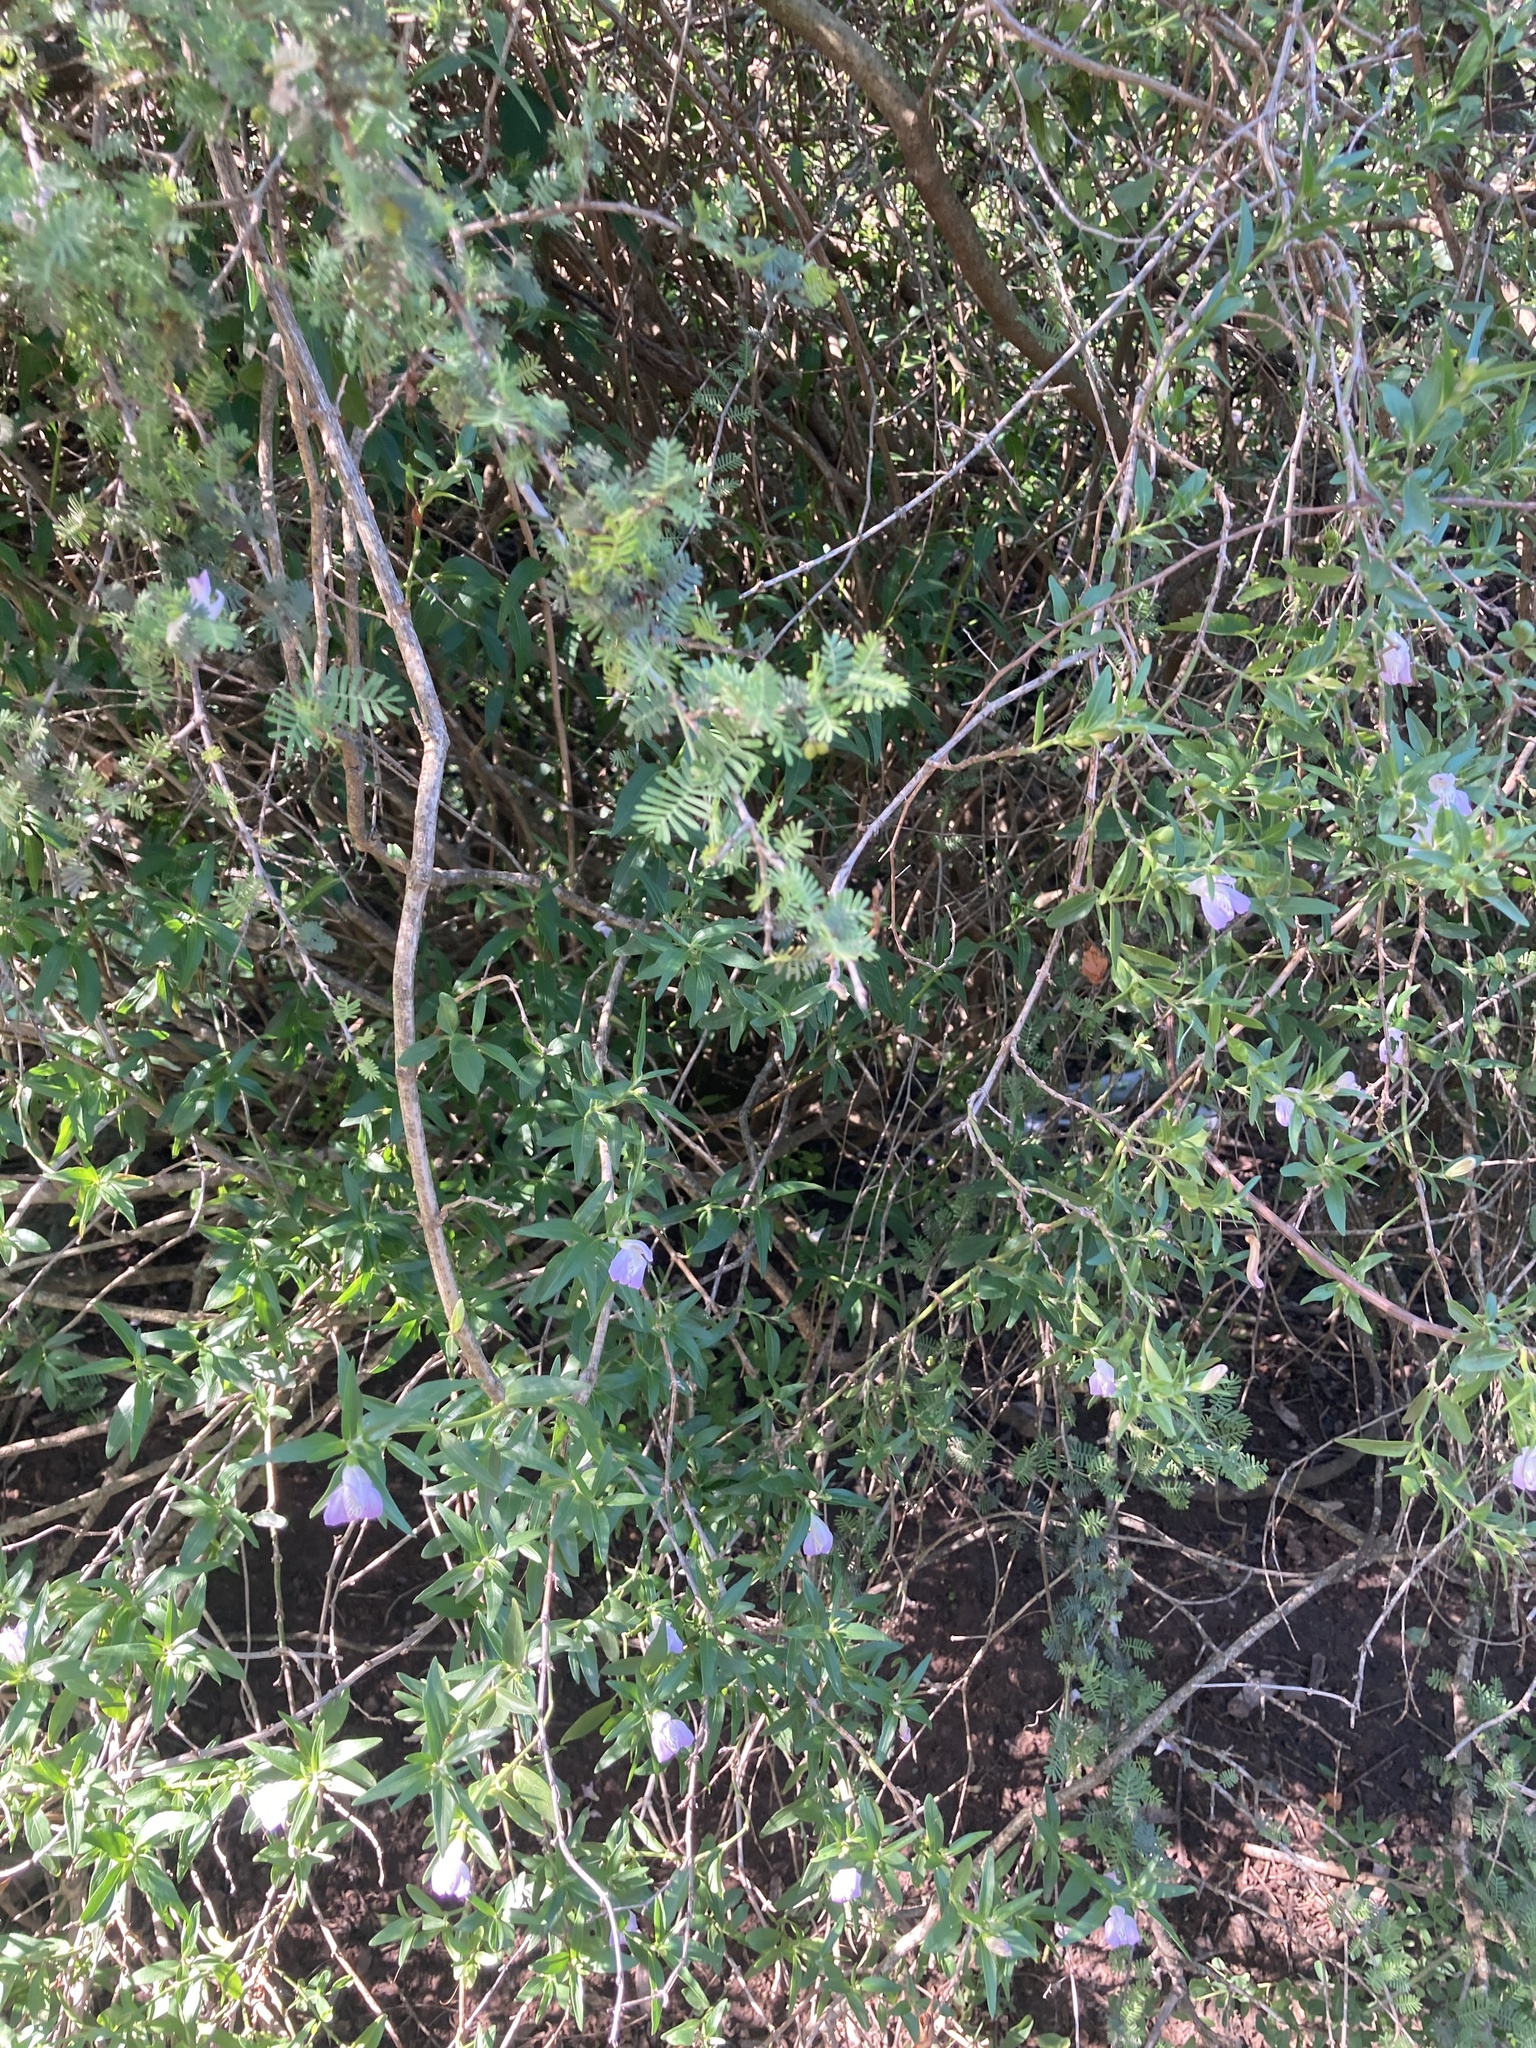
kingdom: Plantae
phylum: Tracheophyta
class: Magnoliopsida
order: Lamiales
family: Acanthaceae
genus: Poikilacanthus
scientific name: Poikilacanthus tweedianus
